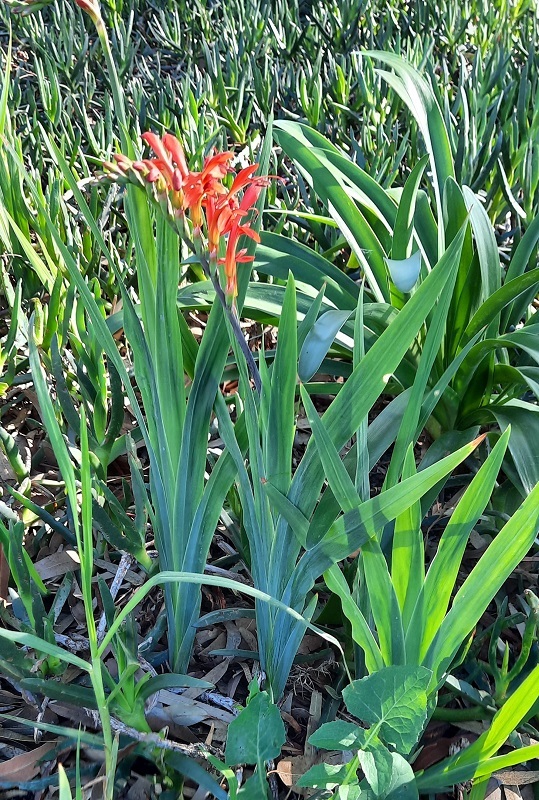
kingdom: Plantae
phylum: Tracheophyta
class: Liliopsida
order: Asparagales
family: Iridaceae
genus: Chasmanthe
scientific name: Chasmanthe aethiopica
